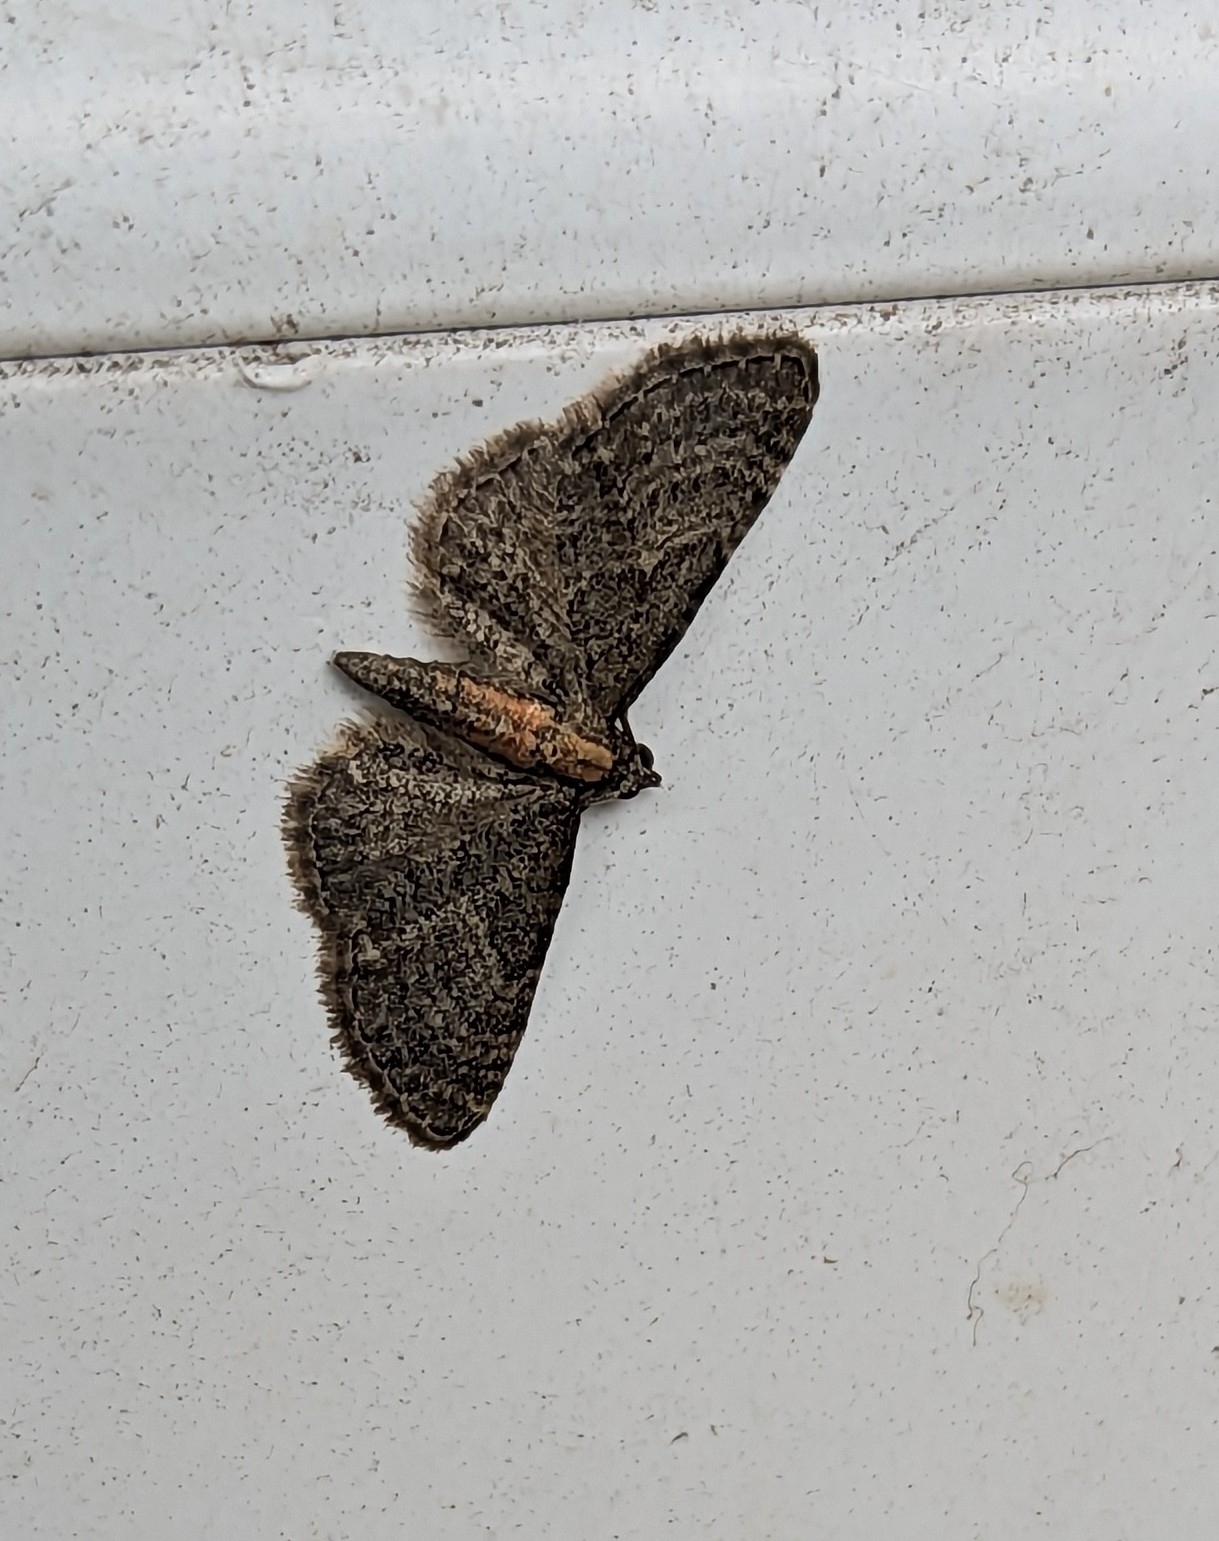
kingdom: Animalia
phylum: Arthropoda
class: Insecta
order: Lepidoptera
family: Geometridae
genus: Eupithecia
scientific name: Eupithecia haworthiata
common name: Haworth's pug
